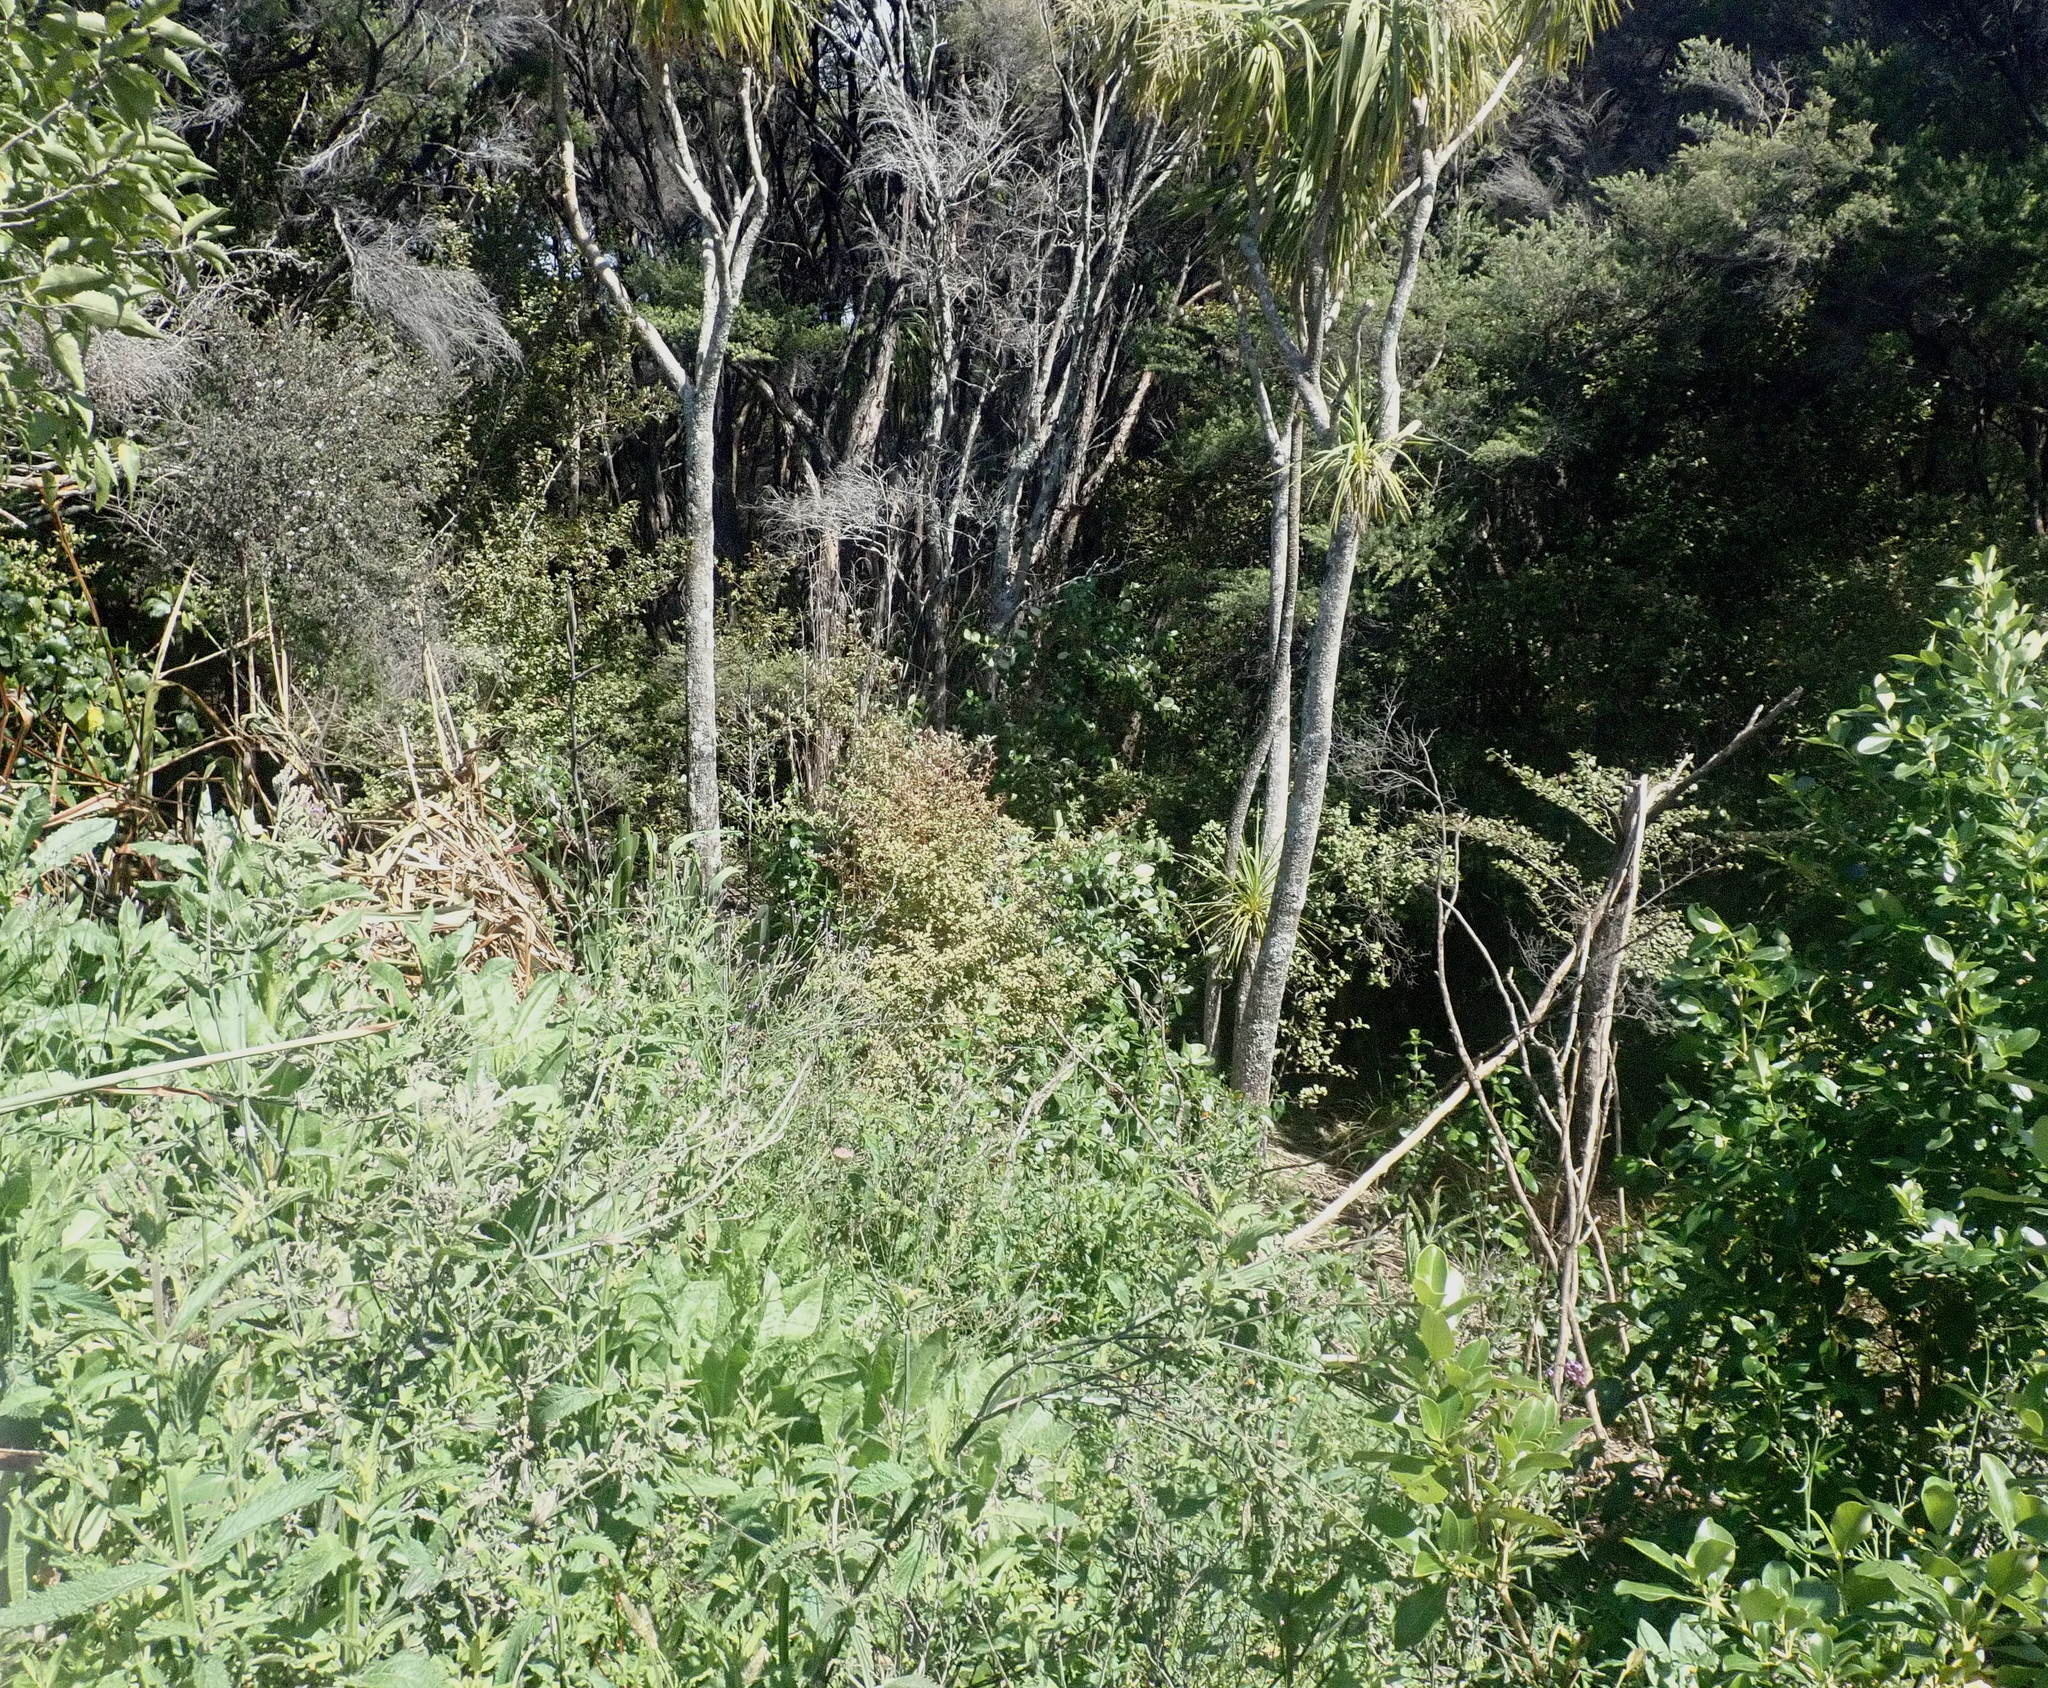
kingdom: Plantae
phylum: Tracheophyta
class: Magnoliopsida
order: Ericales
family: Primulaceae
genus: Myrsine
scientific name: Myrsine australis
